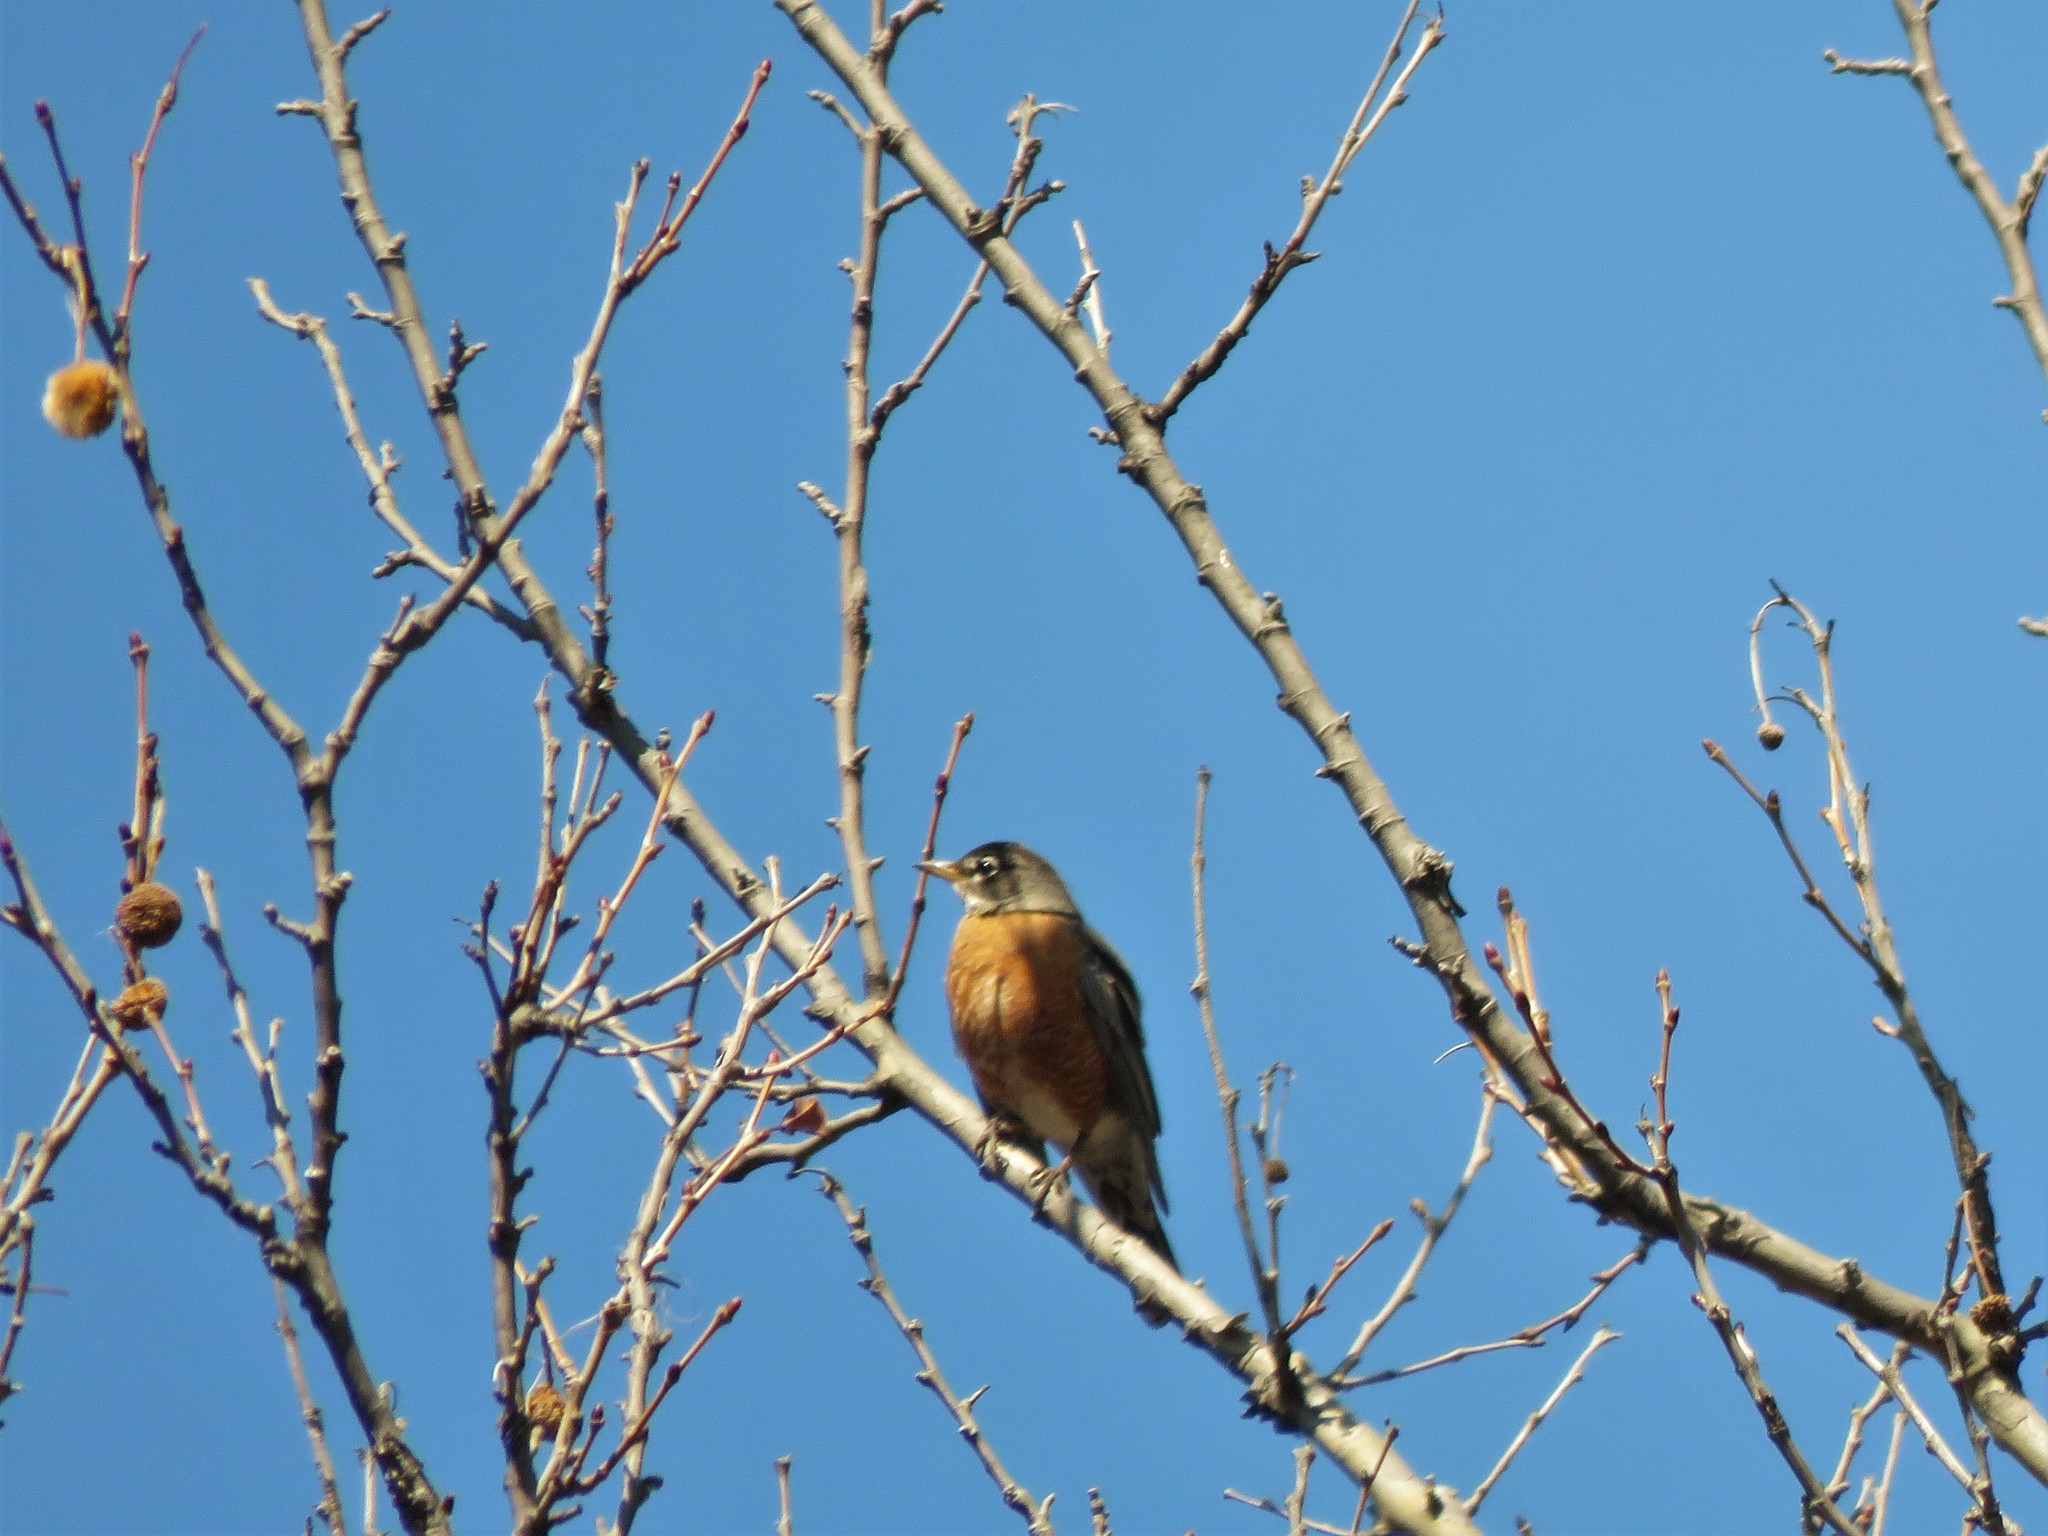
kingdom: Animalia
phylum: Chordata
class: Aves
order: Passeriformes
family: Turdidae
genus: Turdus
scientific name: Turdus migratorius
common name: American robin
